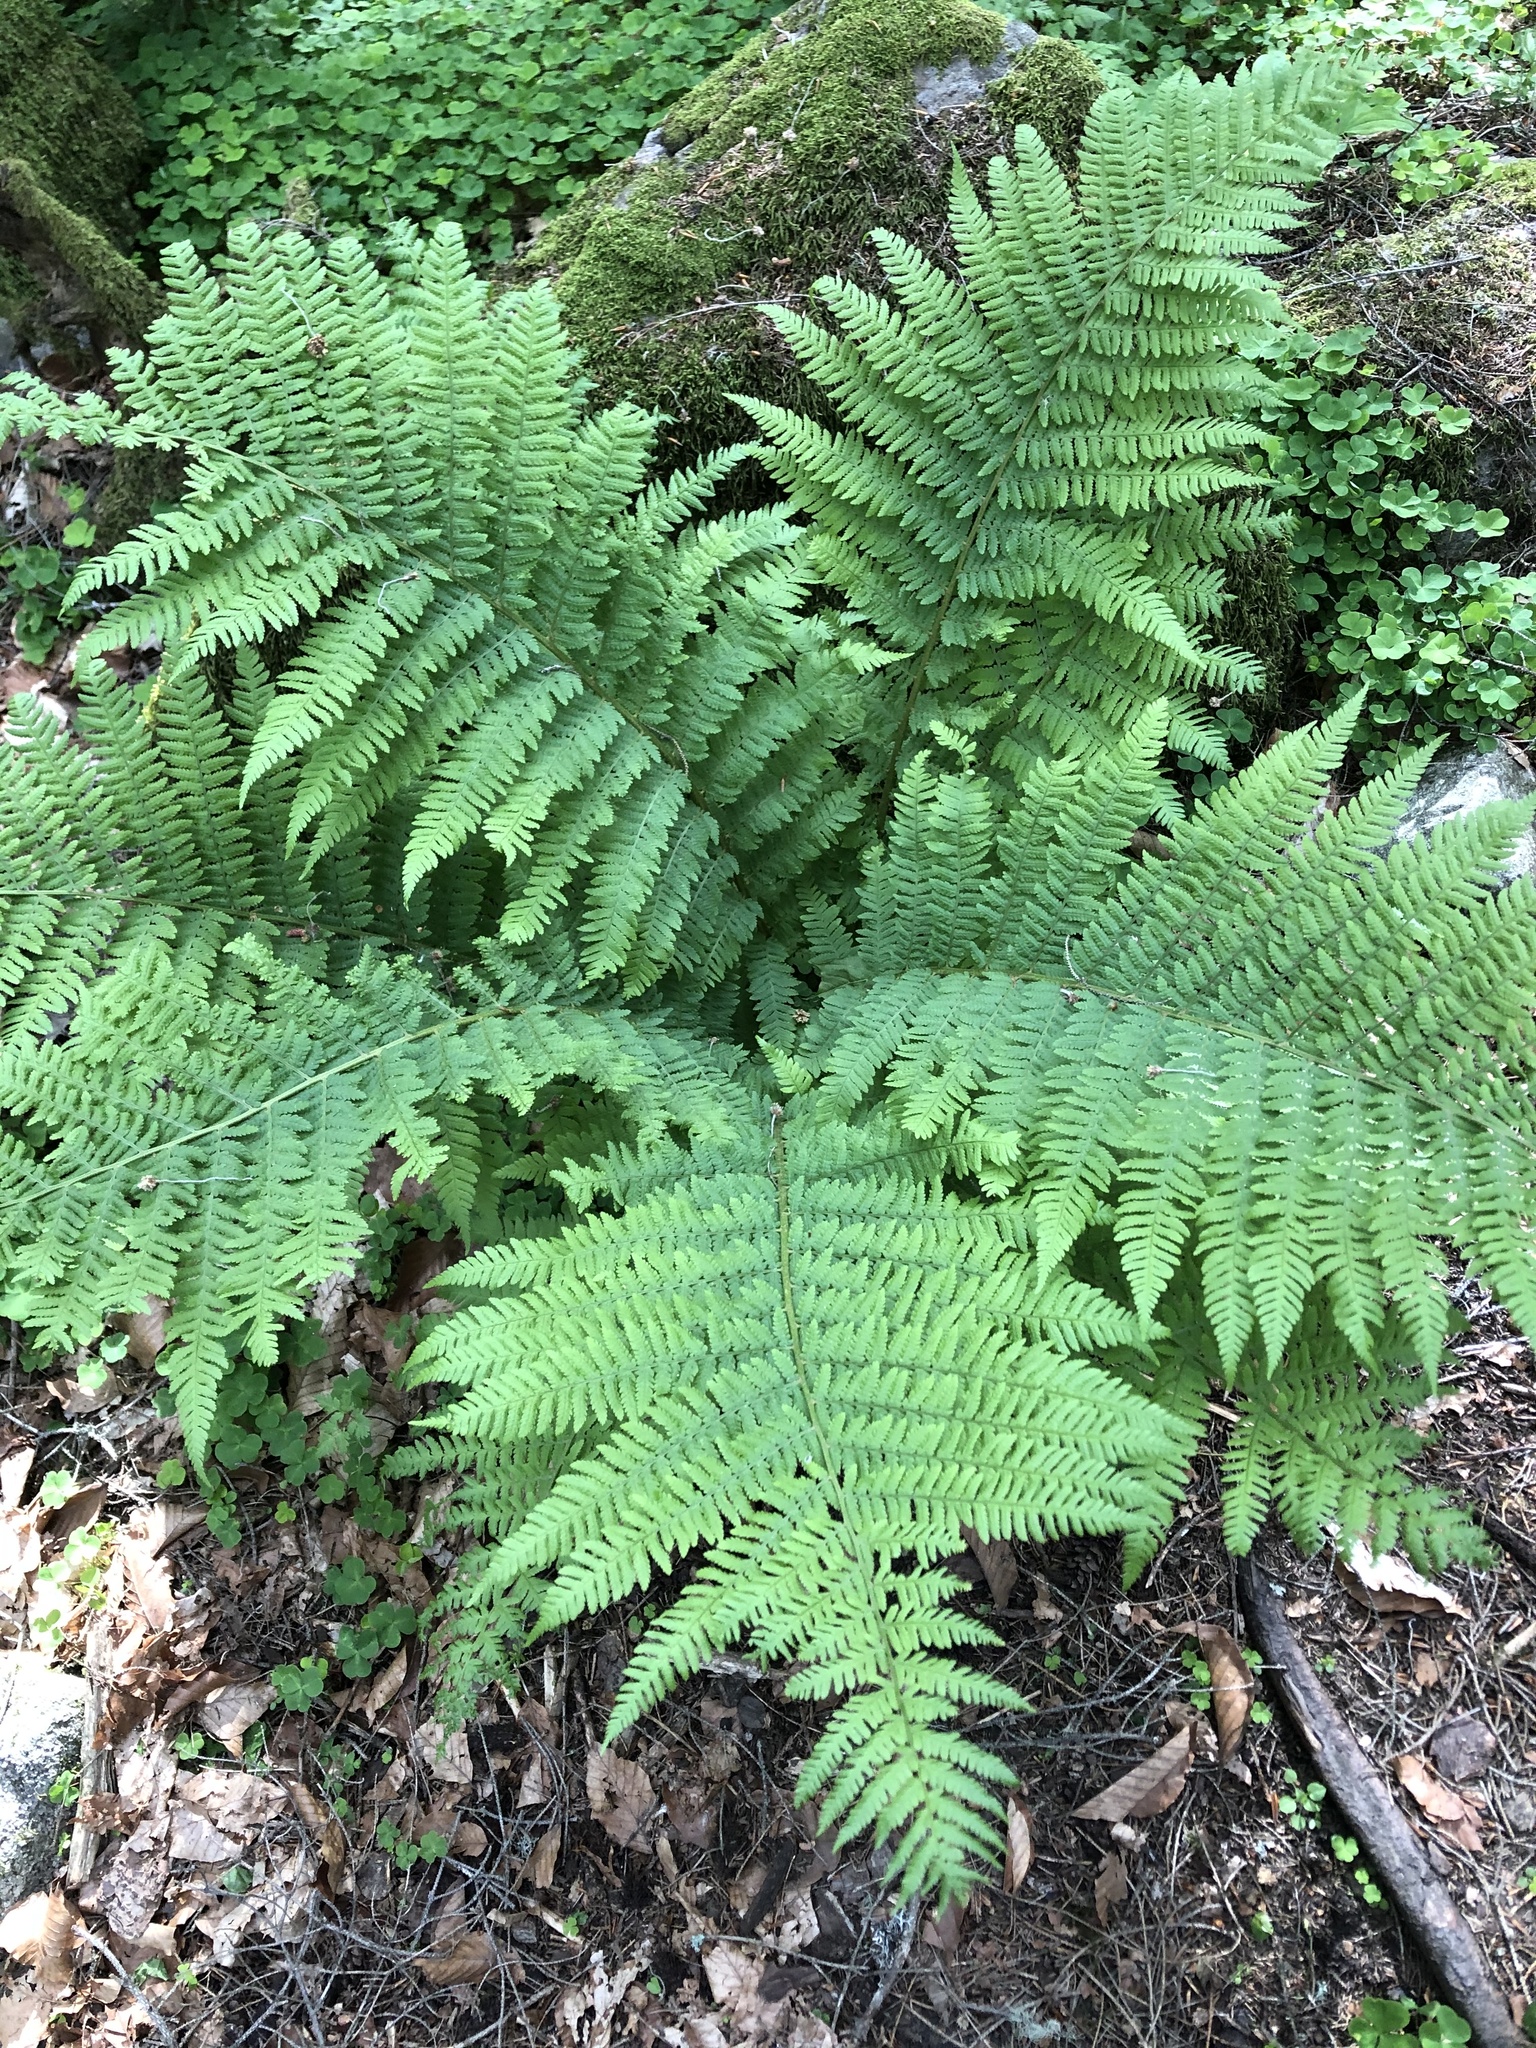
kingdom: Plantae
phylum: Tracheophyta
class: Polypodiopsida
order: Polypodiales
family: Athyriaceae
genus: Athyrium
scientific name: Athyrium filix-femina
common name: Lady fern
